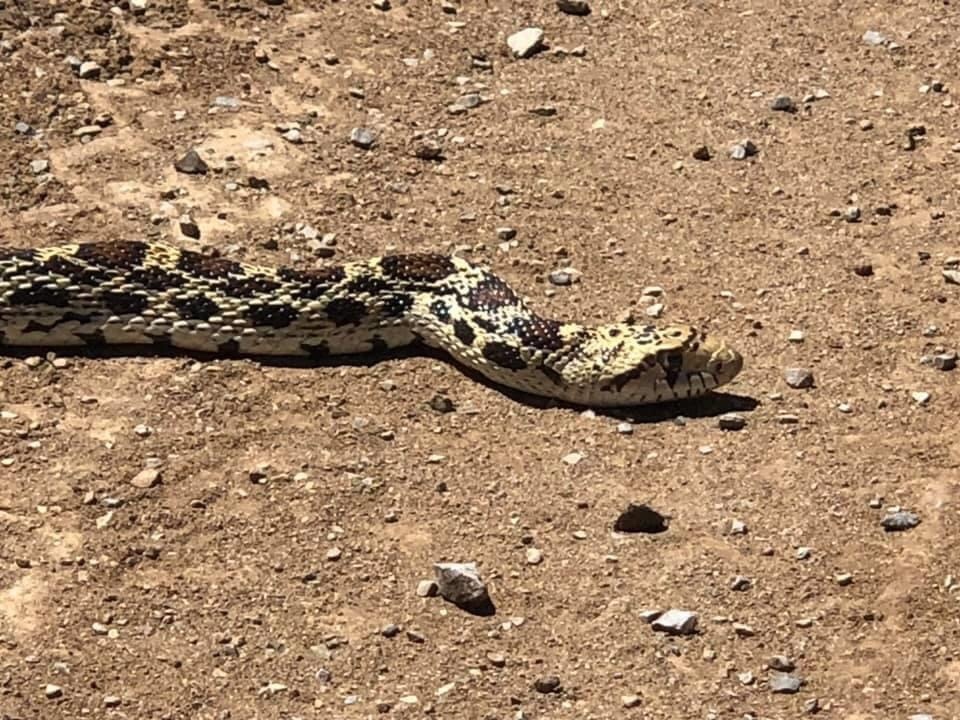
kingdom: Animalia
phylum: Chordata
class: Squamata
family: Colubridae
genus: Pituophis
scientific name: Pituophis catenifer
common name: Gopher snake
